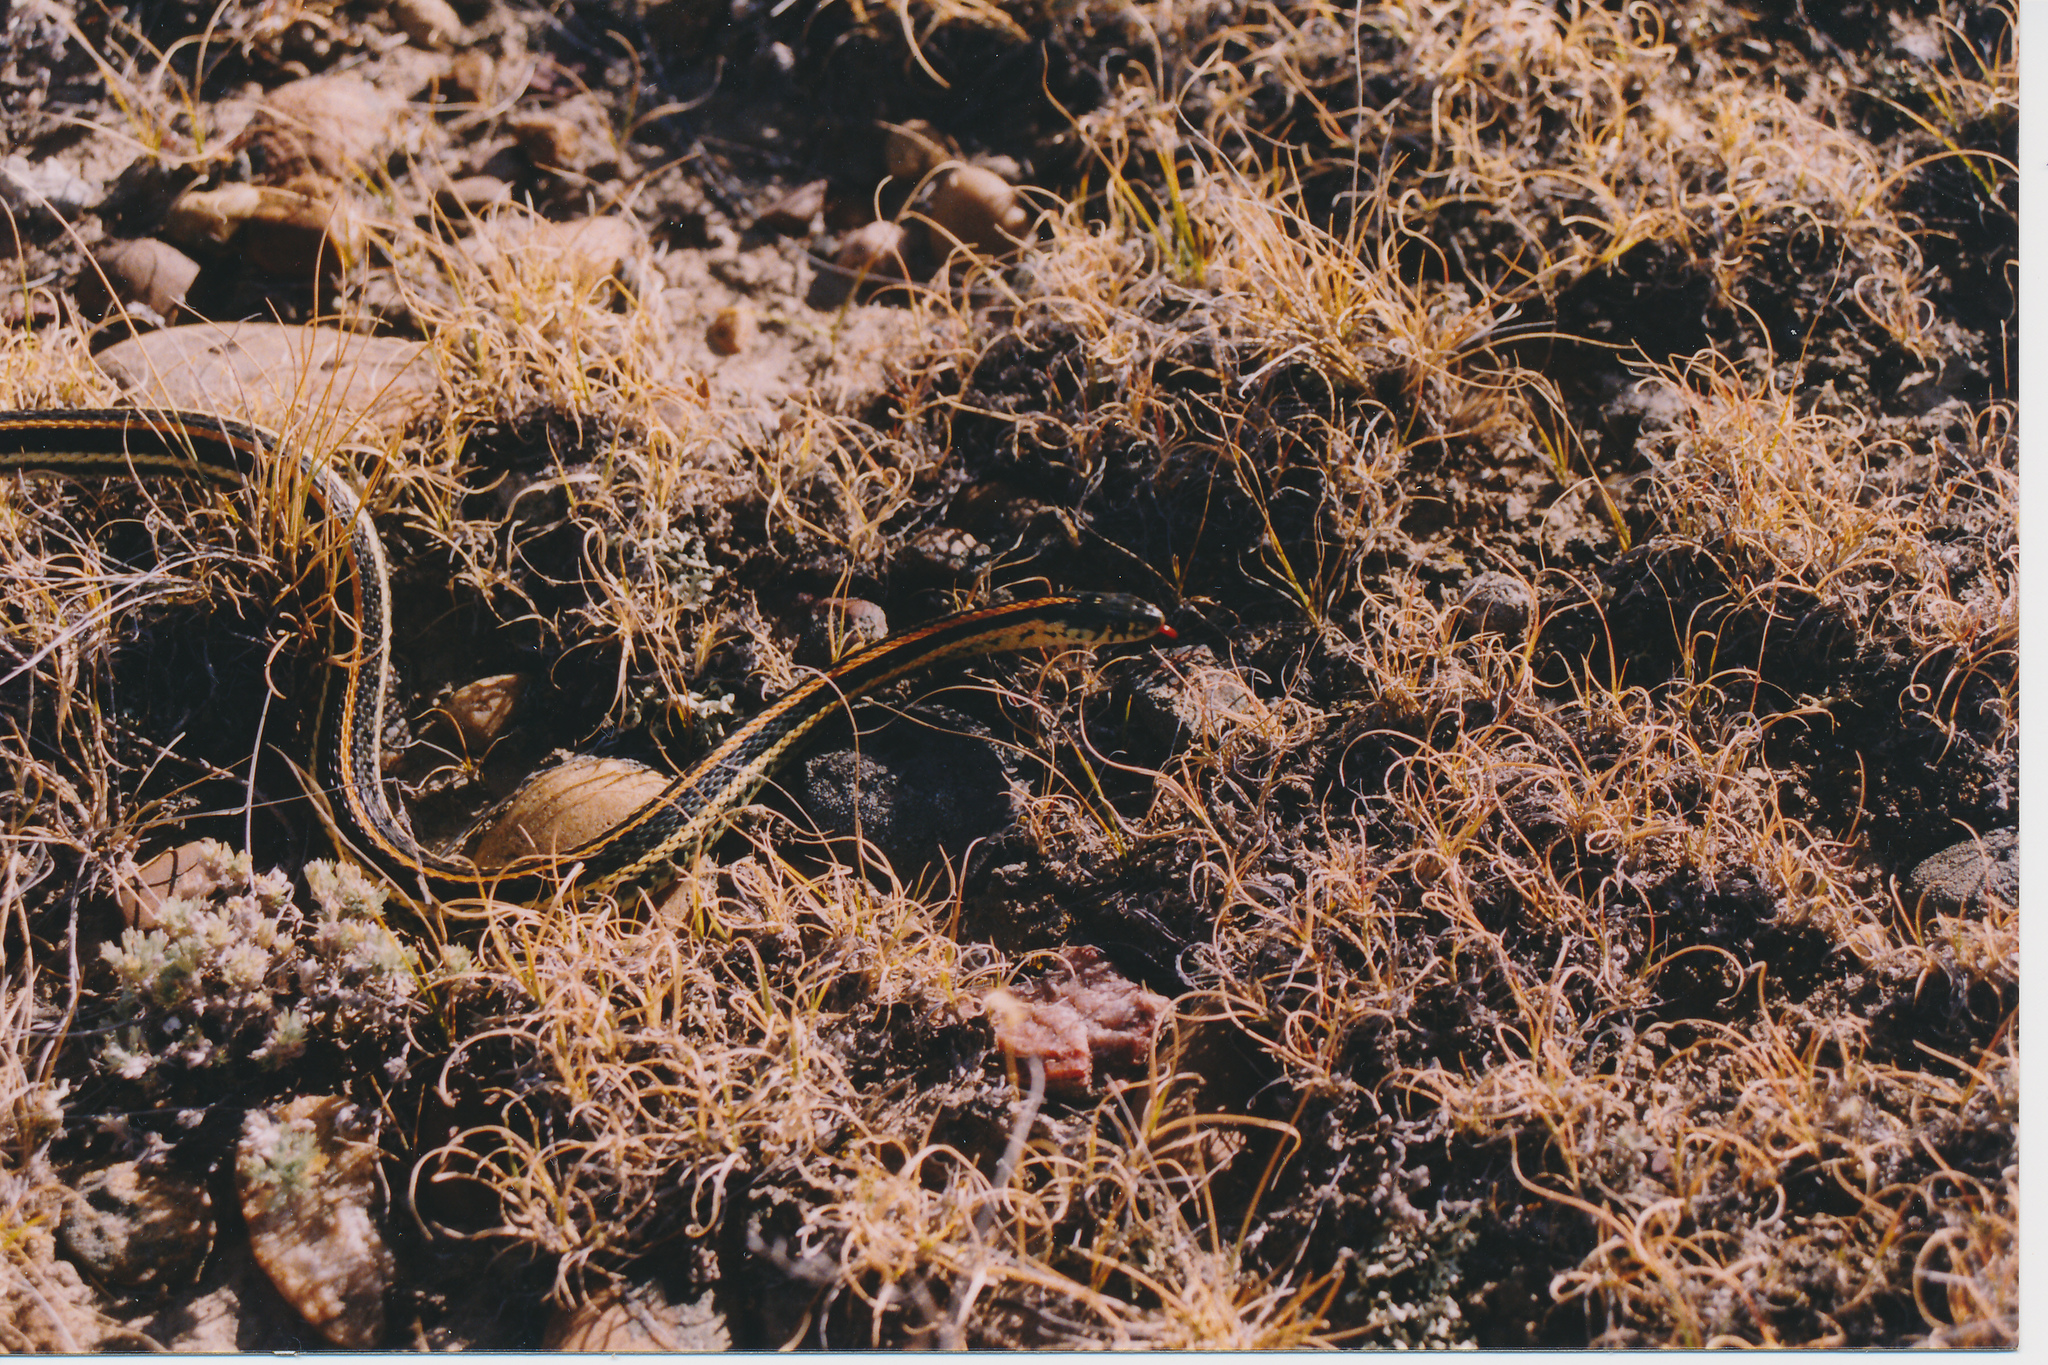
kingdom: Animalia
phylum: Chordata
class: Squamata
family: Colubridae
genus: Thamnophis
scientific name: Thamnophis radix
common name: Plains garter snake
